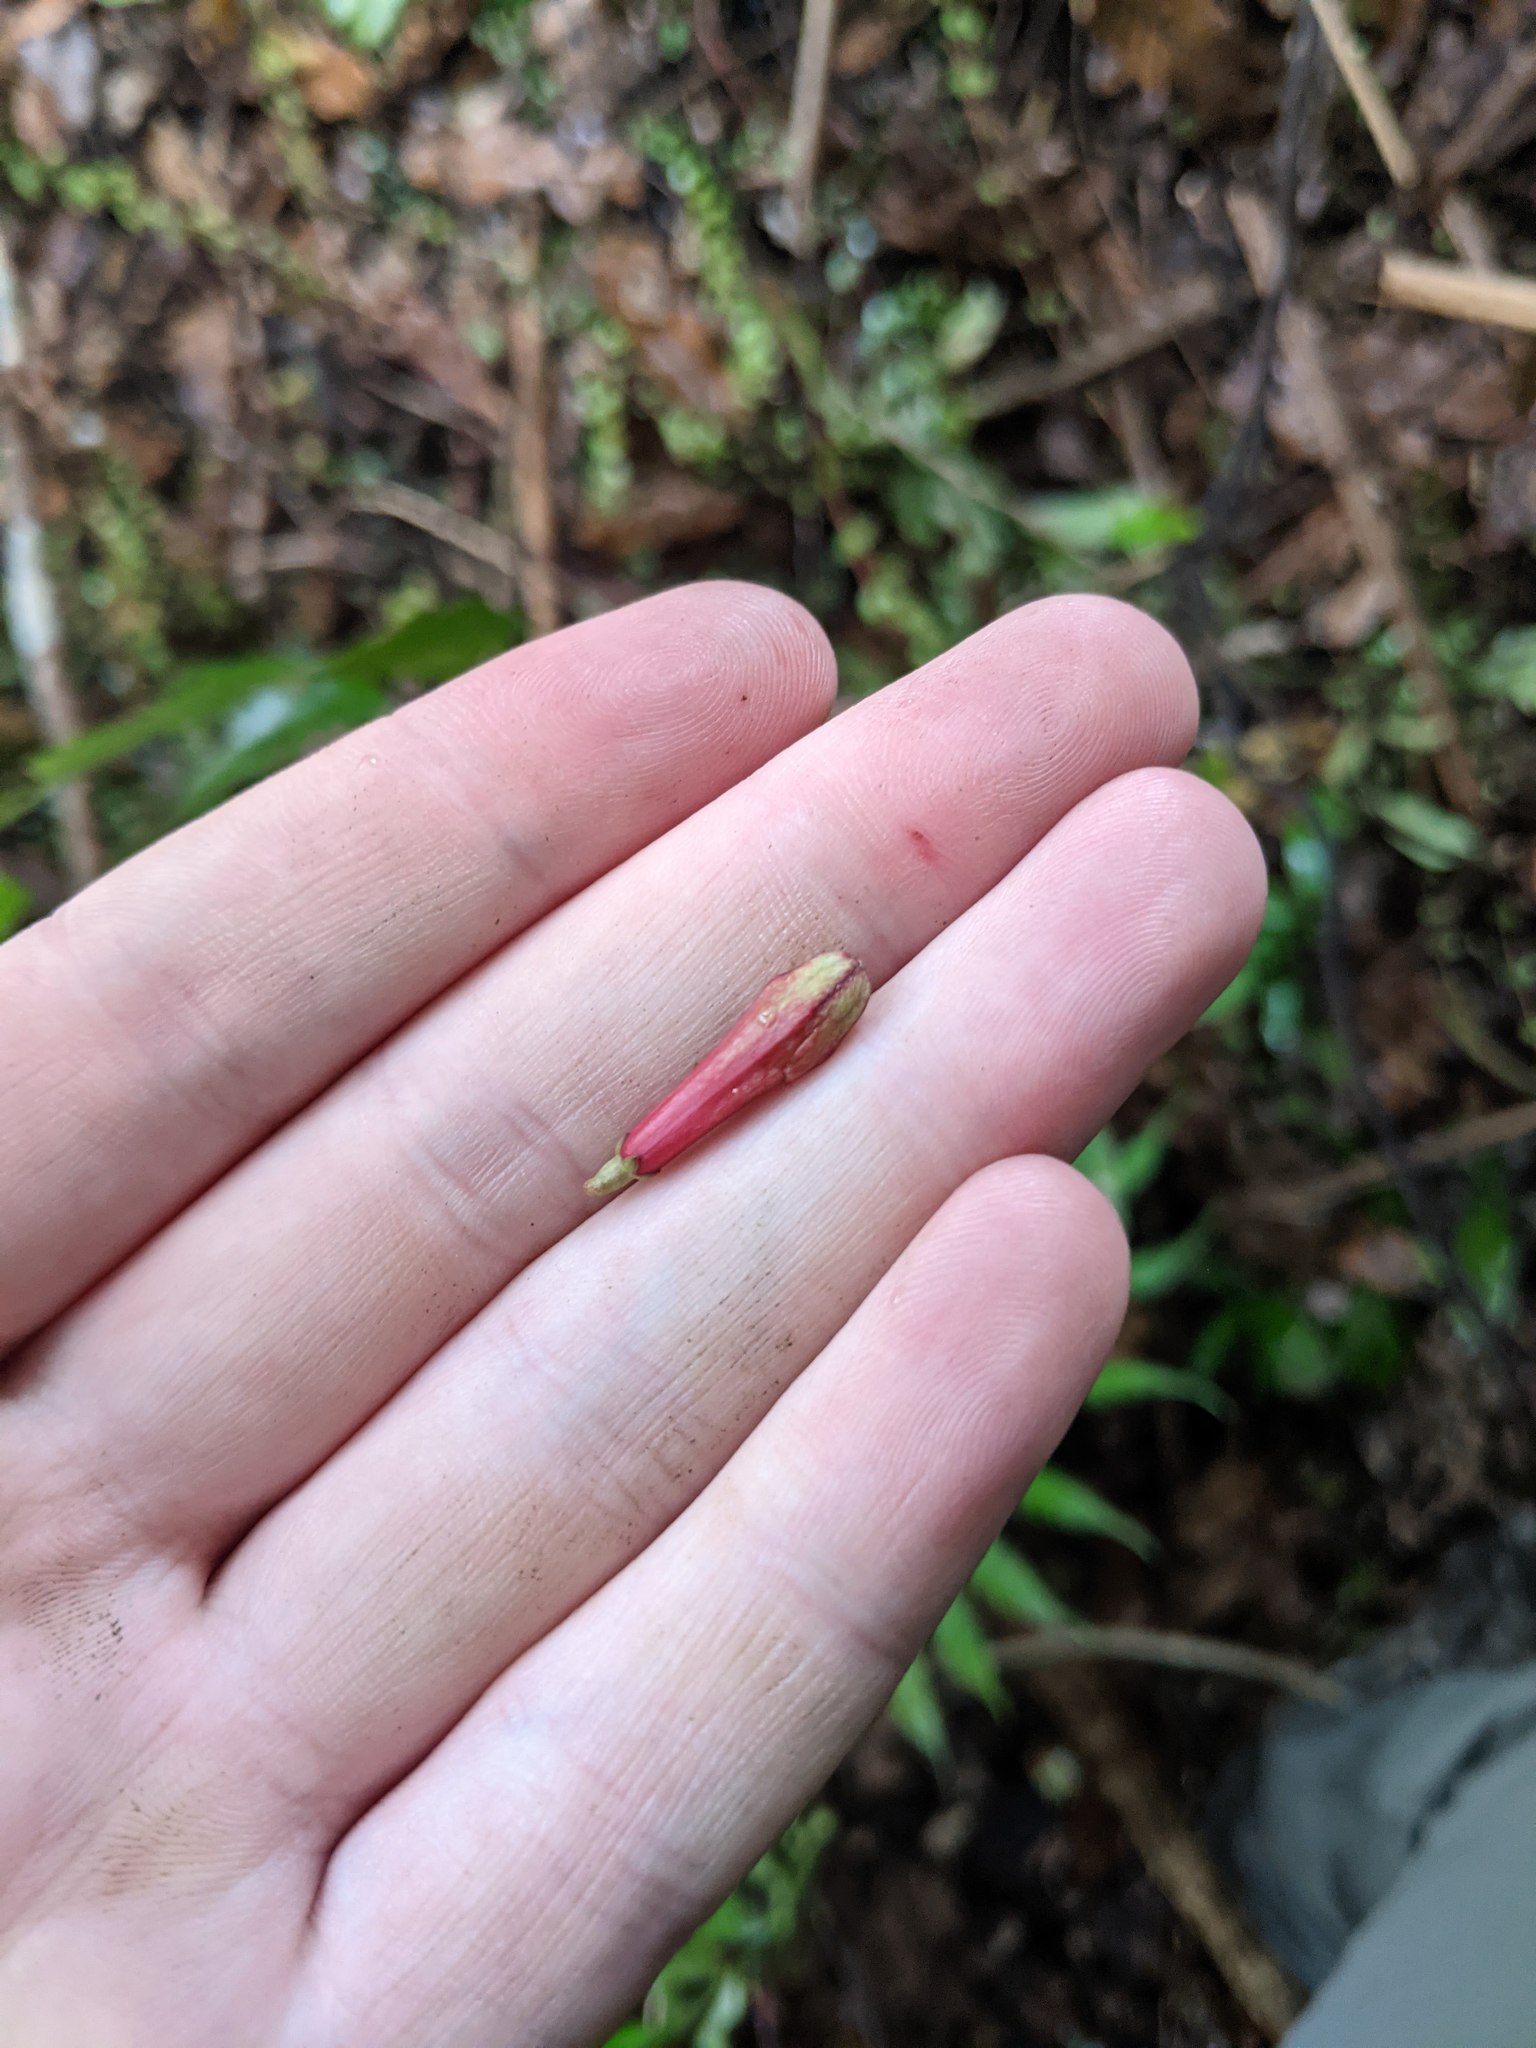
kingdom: Plantae
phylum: Tracheophyta
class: Magnoliopsida
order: Asterales
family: Alseuosmiaceae
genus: Alseuosmia
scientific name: Alseuosmia macrophylla
